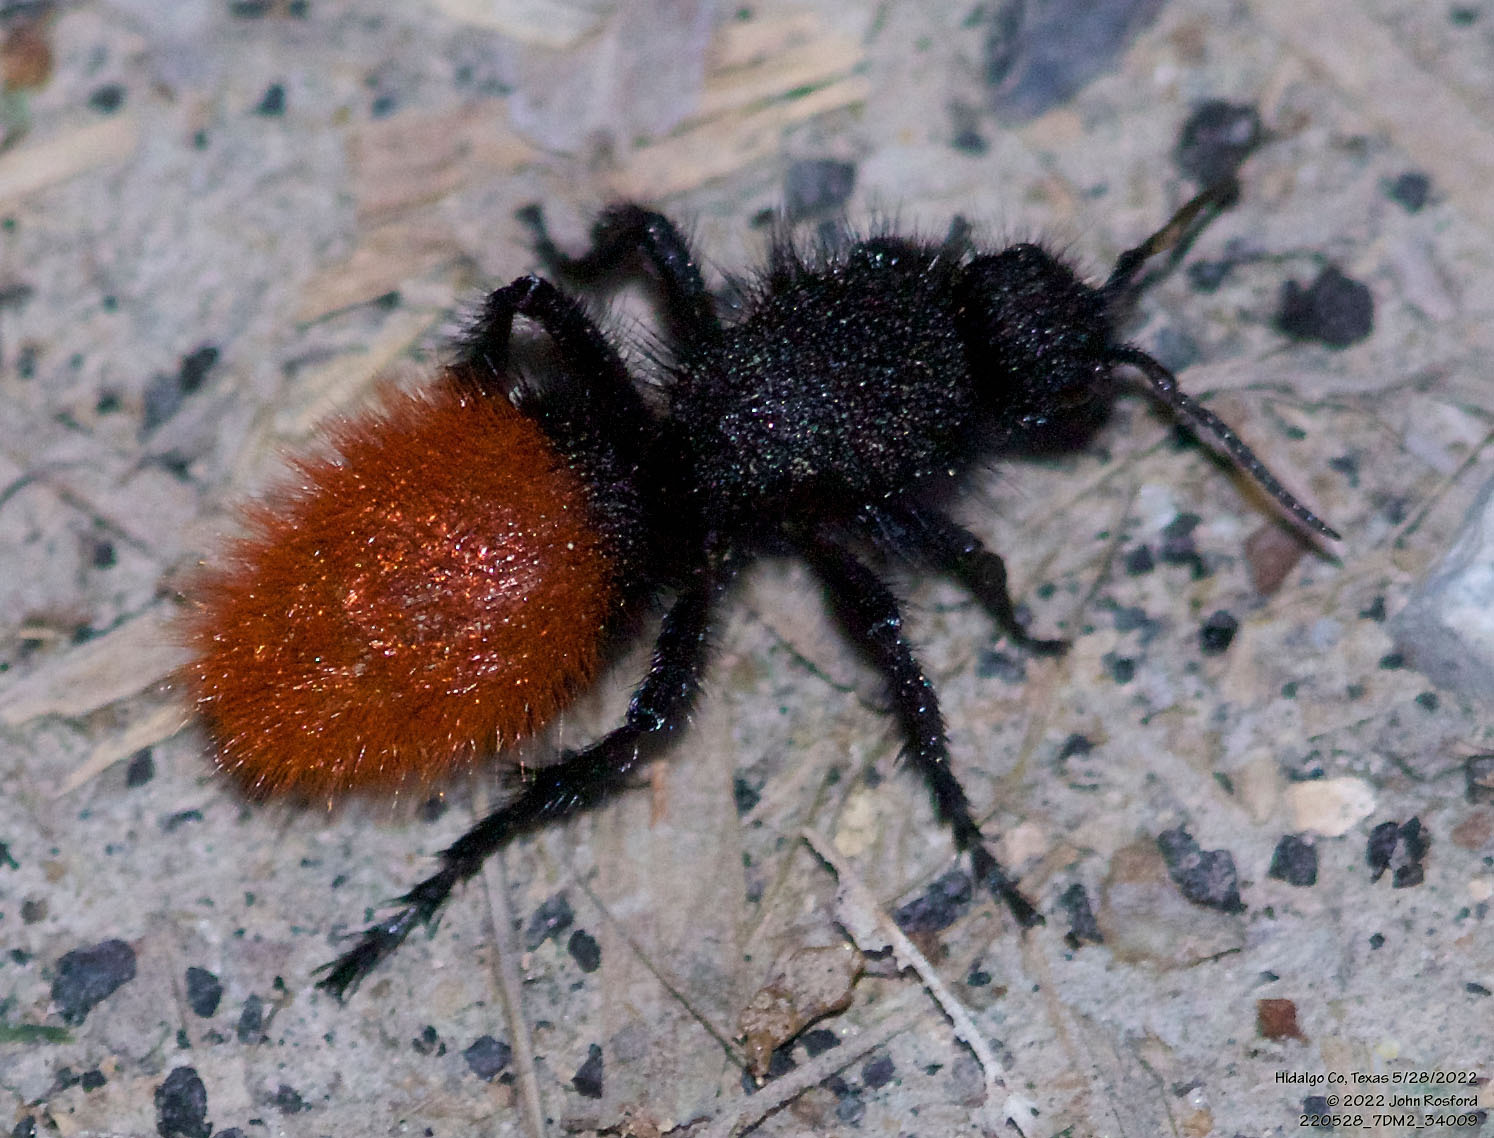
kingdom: Animalia
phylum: Arthropoda
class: Insecta
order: Hymenoptera
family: Mutillidae
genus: Dasymutilla
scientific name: Dasymutilla
